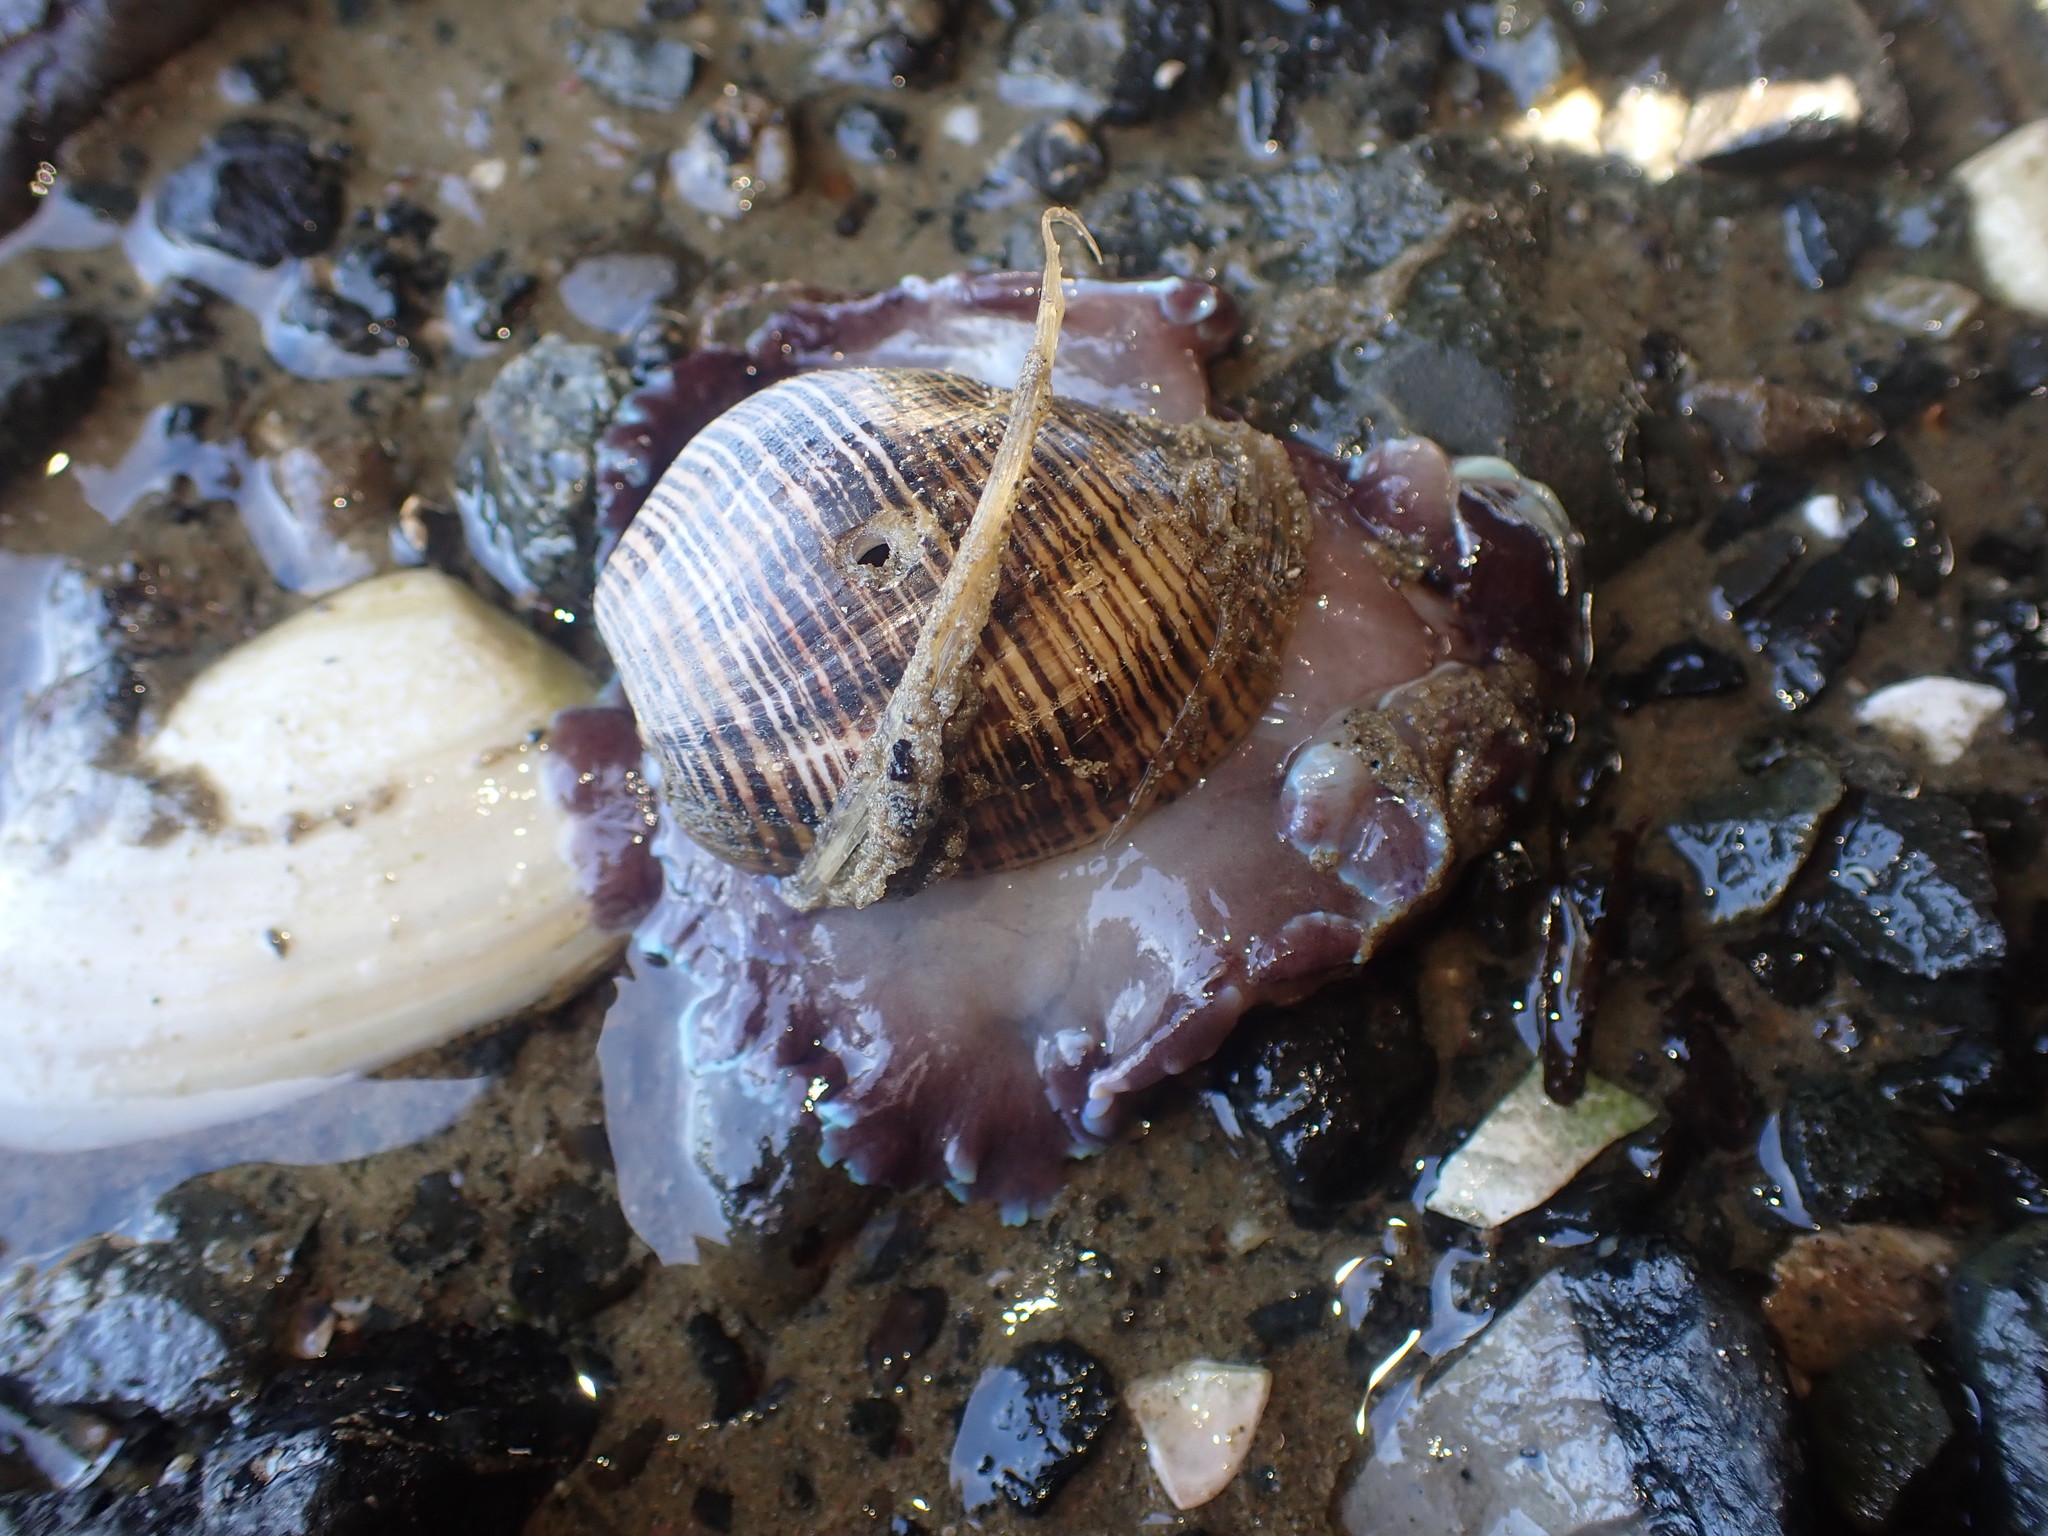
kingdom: Animalia
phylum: Mollusca
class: Gastropoda
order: Cephalaspidea
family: Aplustridae
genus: Hydatina
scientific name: Hydatina physis
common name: Brown-line paperbubble
